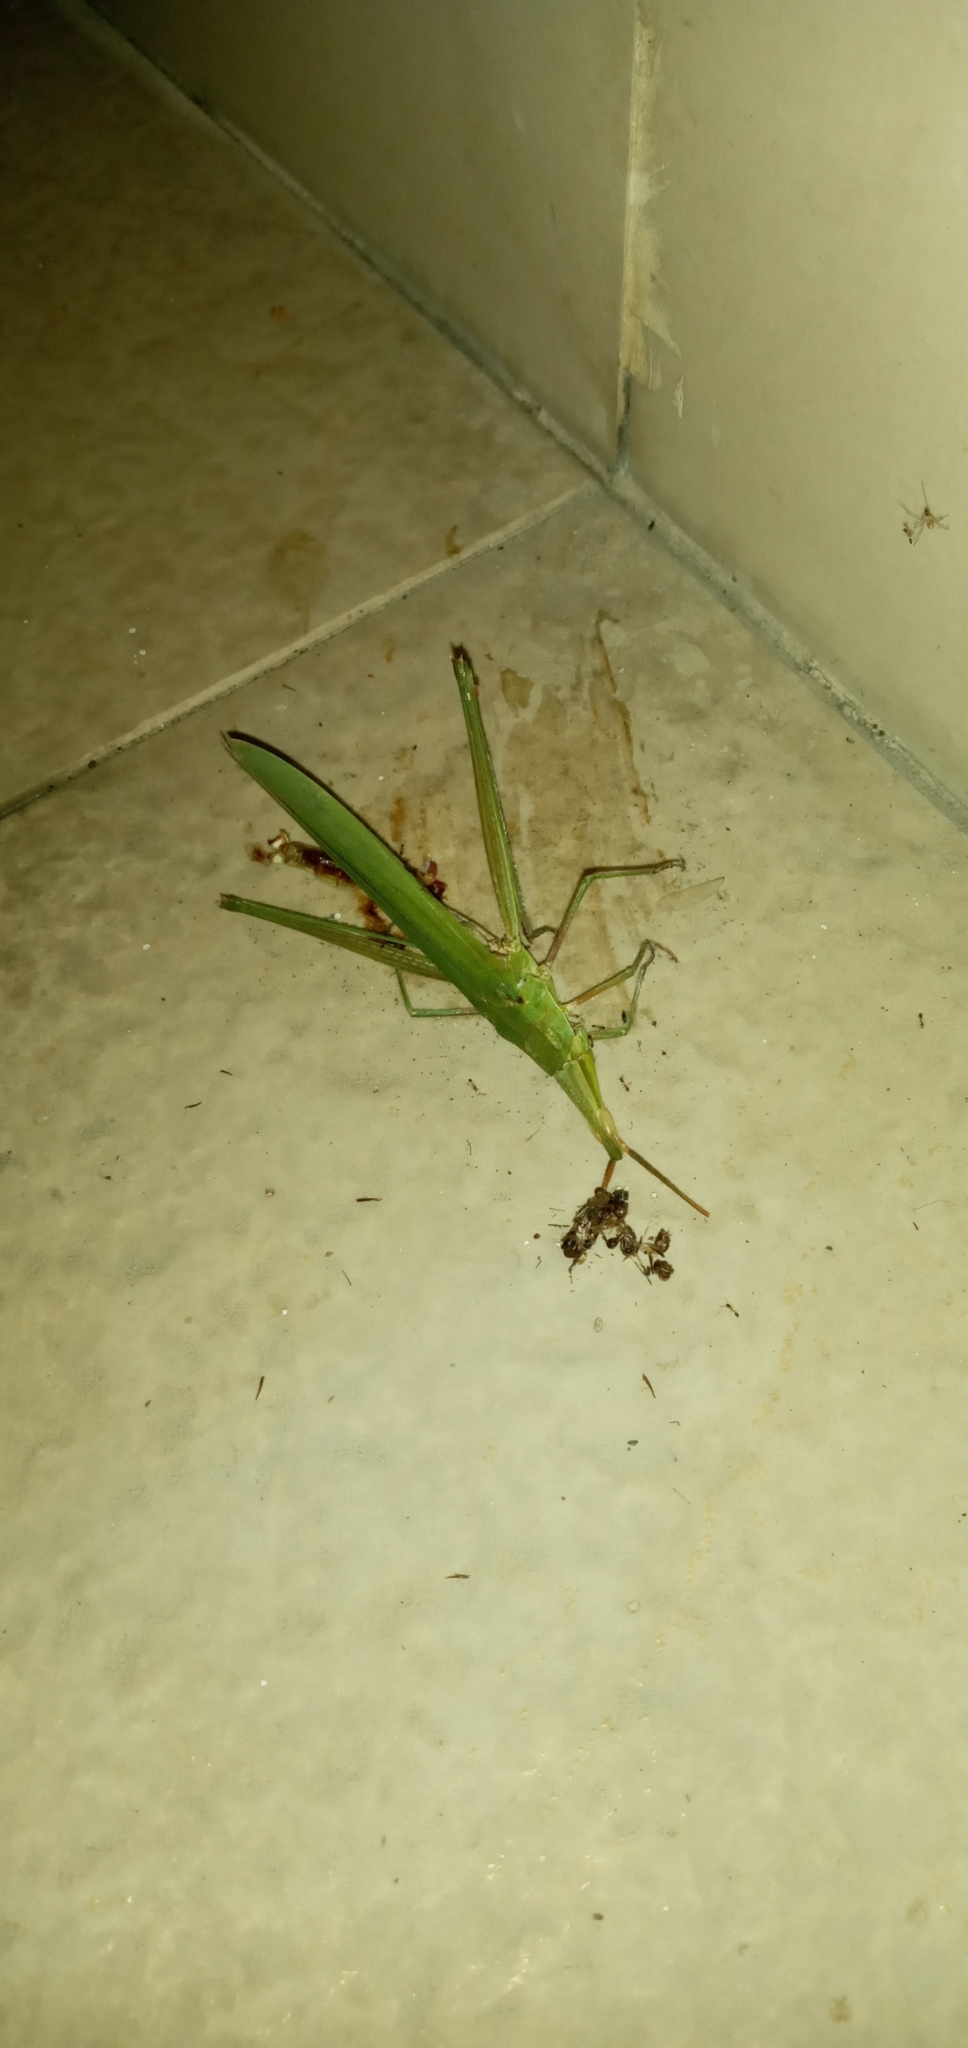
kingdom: Animalia
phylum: Arthropoda
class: Insecta
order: Orthoptera
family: Acrididae
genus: Acrida
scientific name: Acrida cinerea
